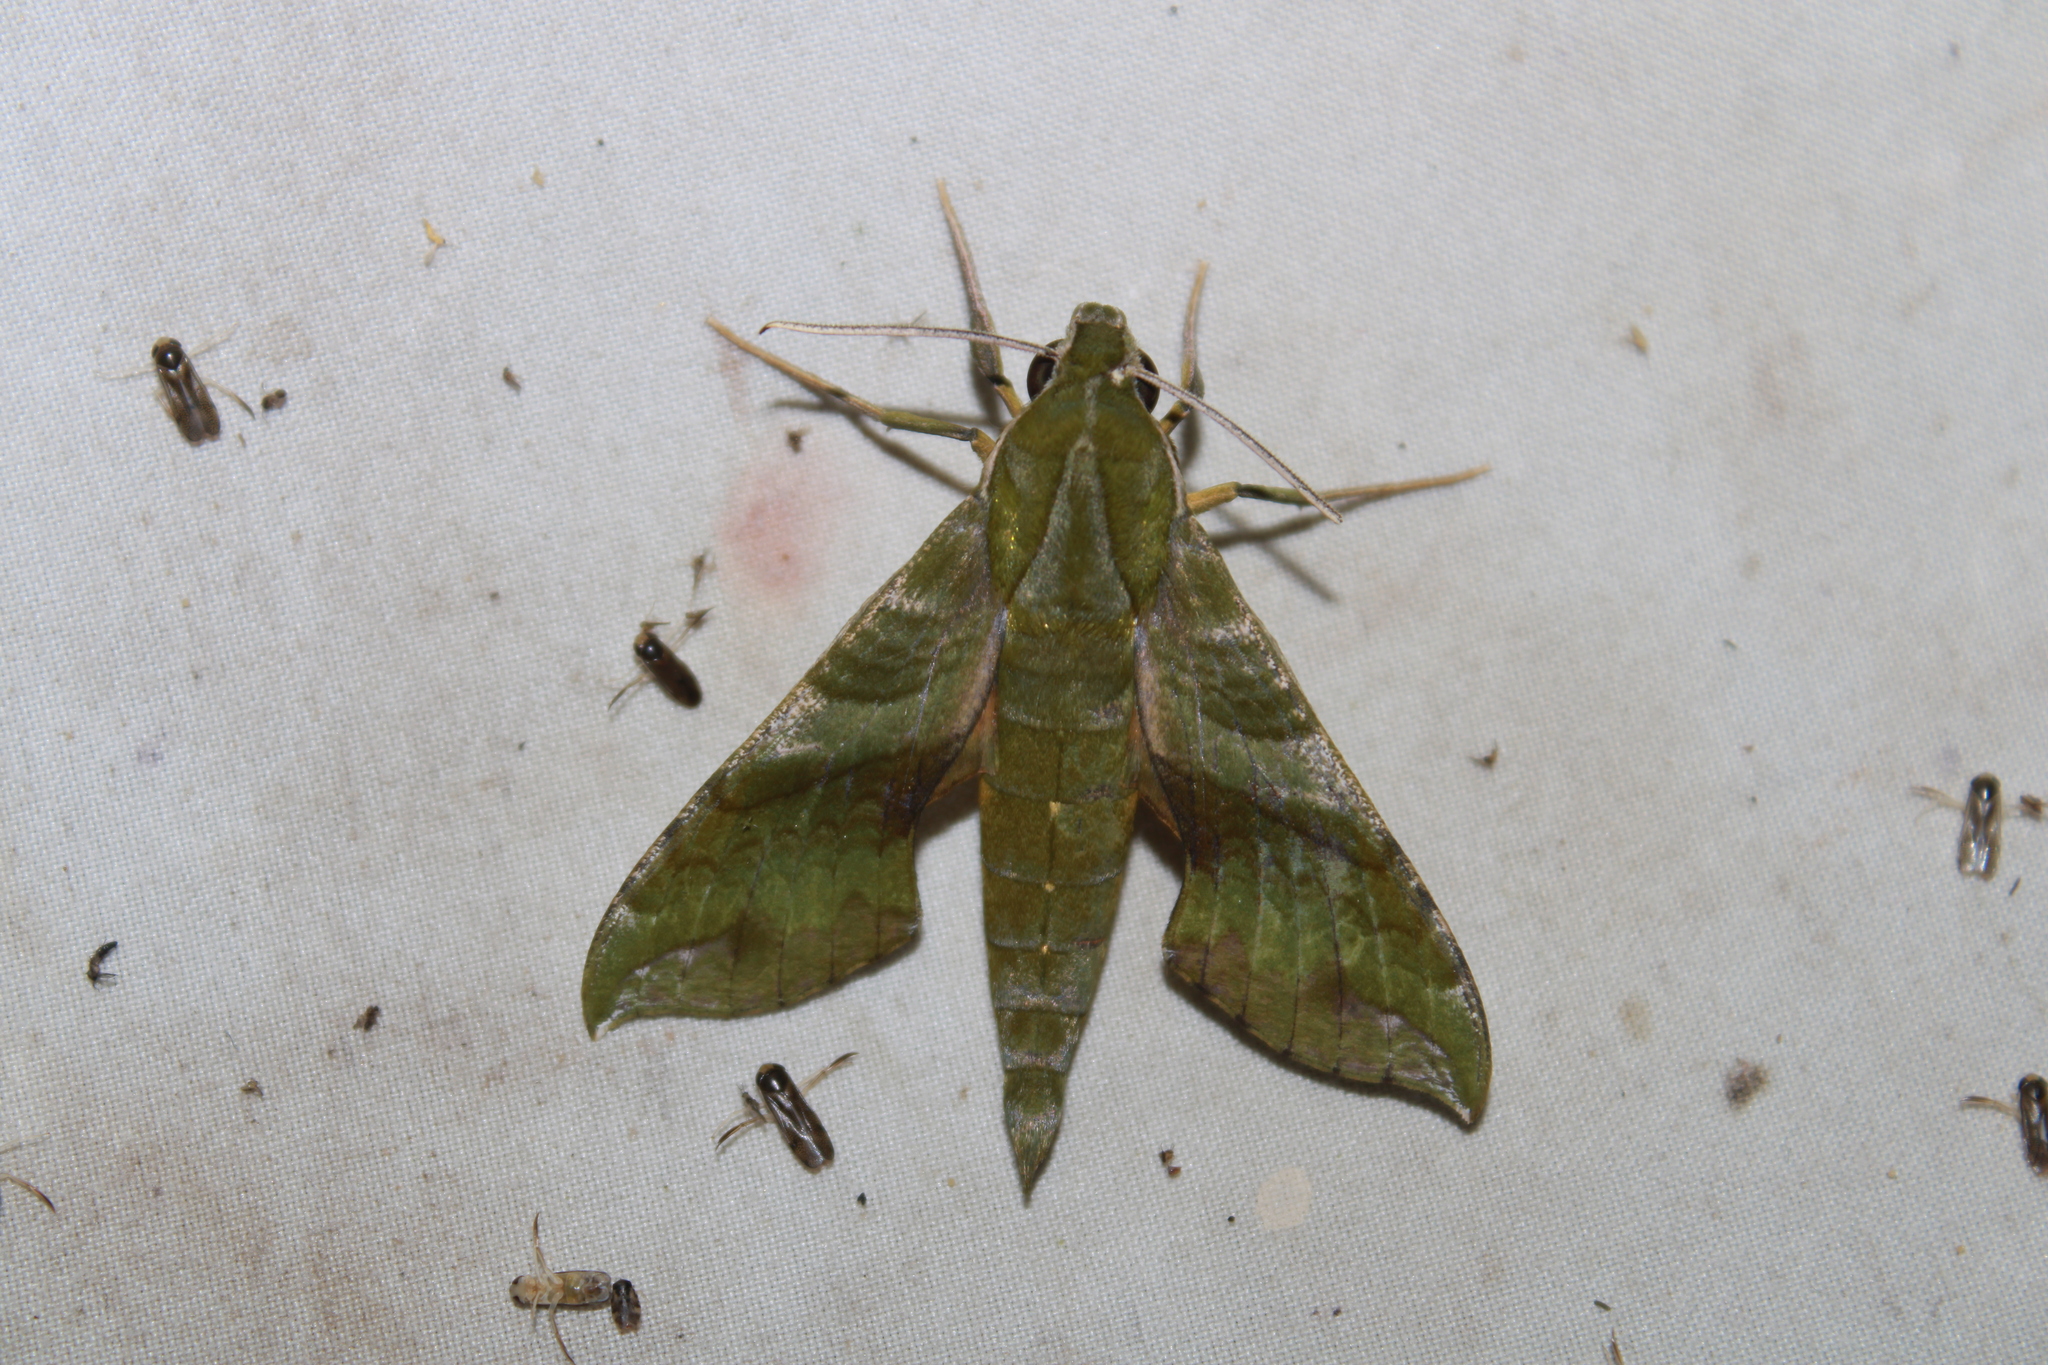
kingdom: Animalia
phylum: Arthropoda
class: Insecta
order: Lepidoptera
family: Sphingidae
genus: Xylophanes
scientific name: Xylophanes pluto
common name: Pluto sphinx
